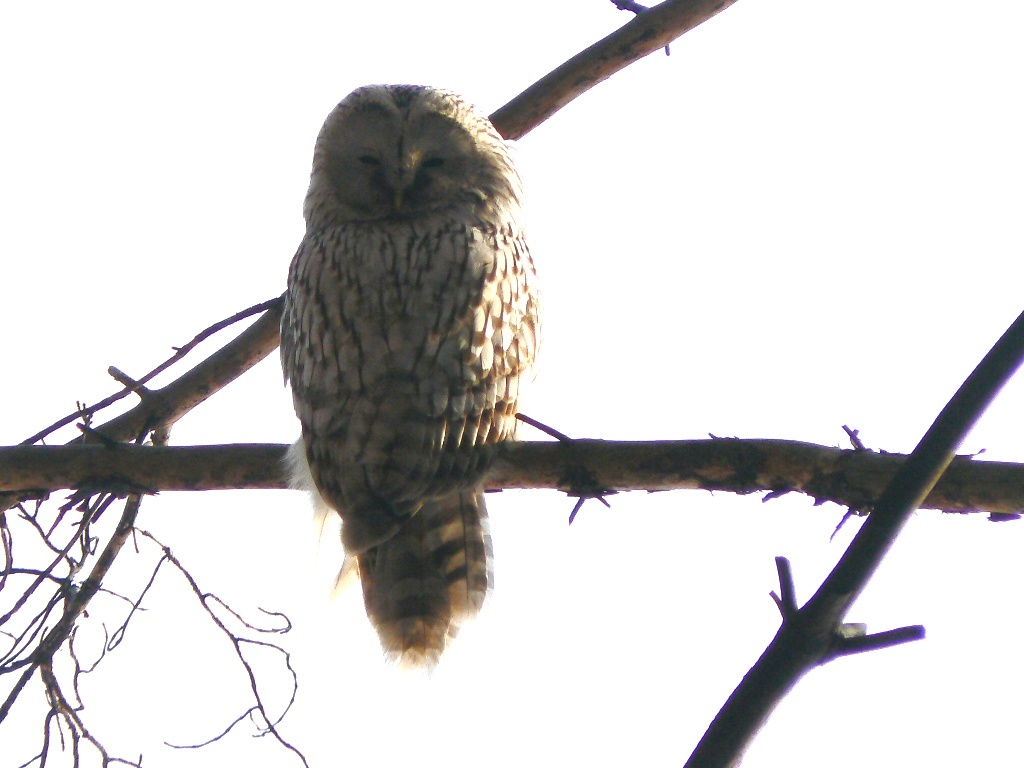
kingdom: Animalia
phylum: Chordata
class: Aves
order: Strigiformes
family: Strigidae
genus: Strix
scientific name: Strix uralensis
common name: Ural owl
